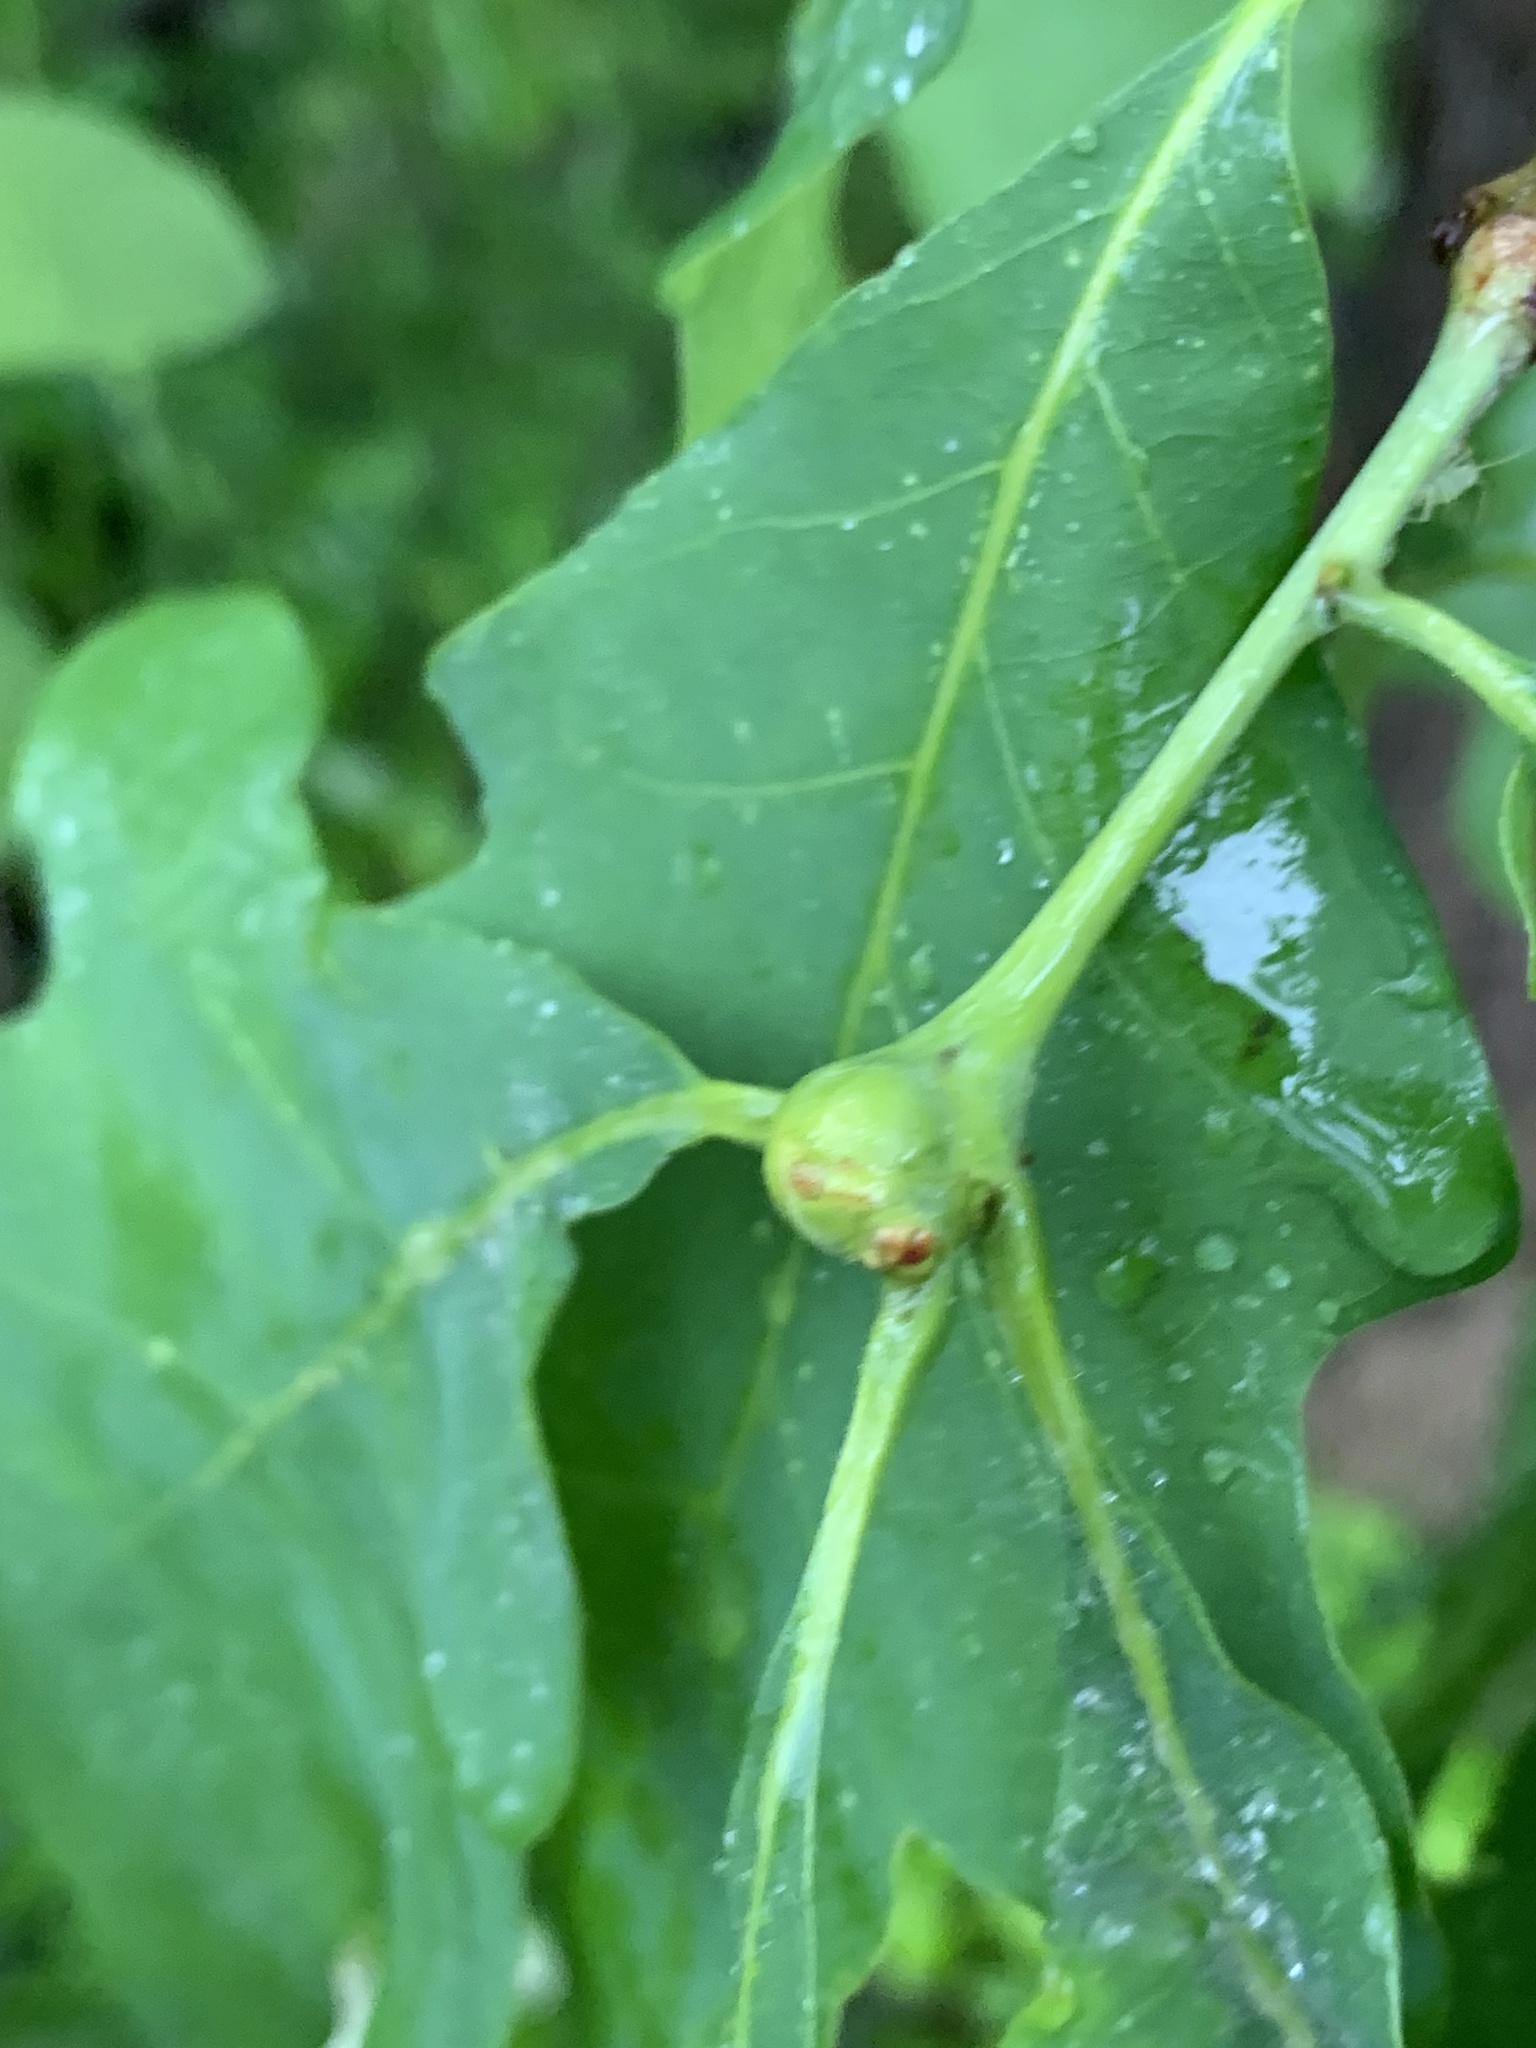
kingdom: Animalia
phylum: Arthropoda
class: Insecta
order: Hymenoptera
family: Cynipidae
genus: Callirhytis
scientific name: Callirhytis clavula
